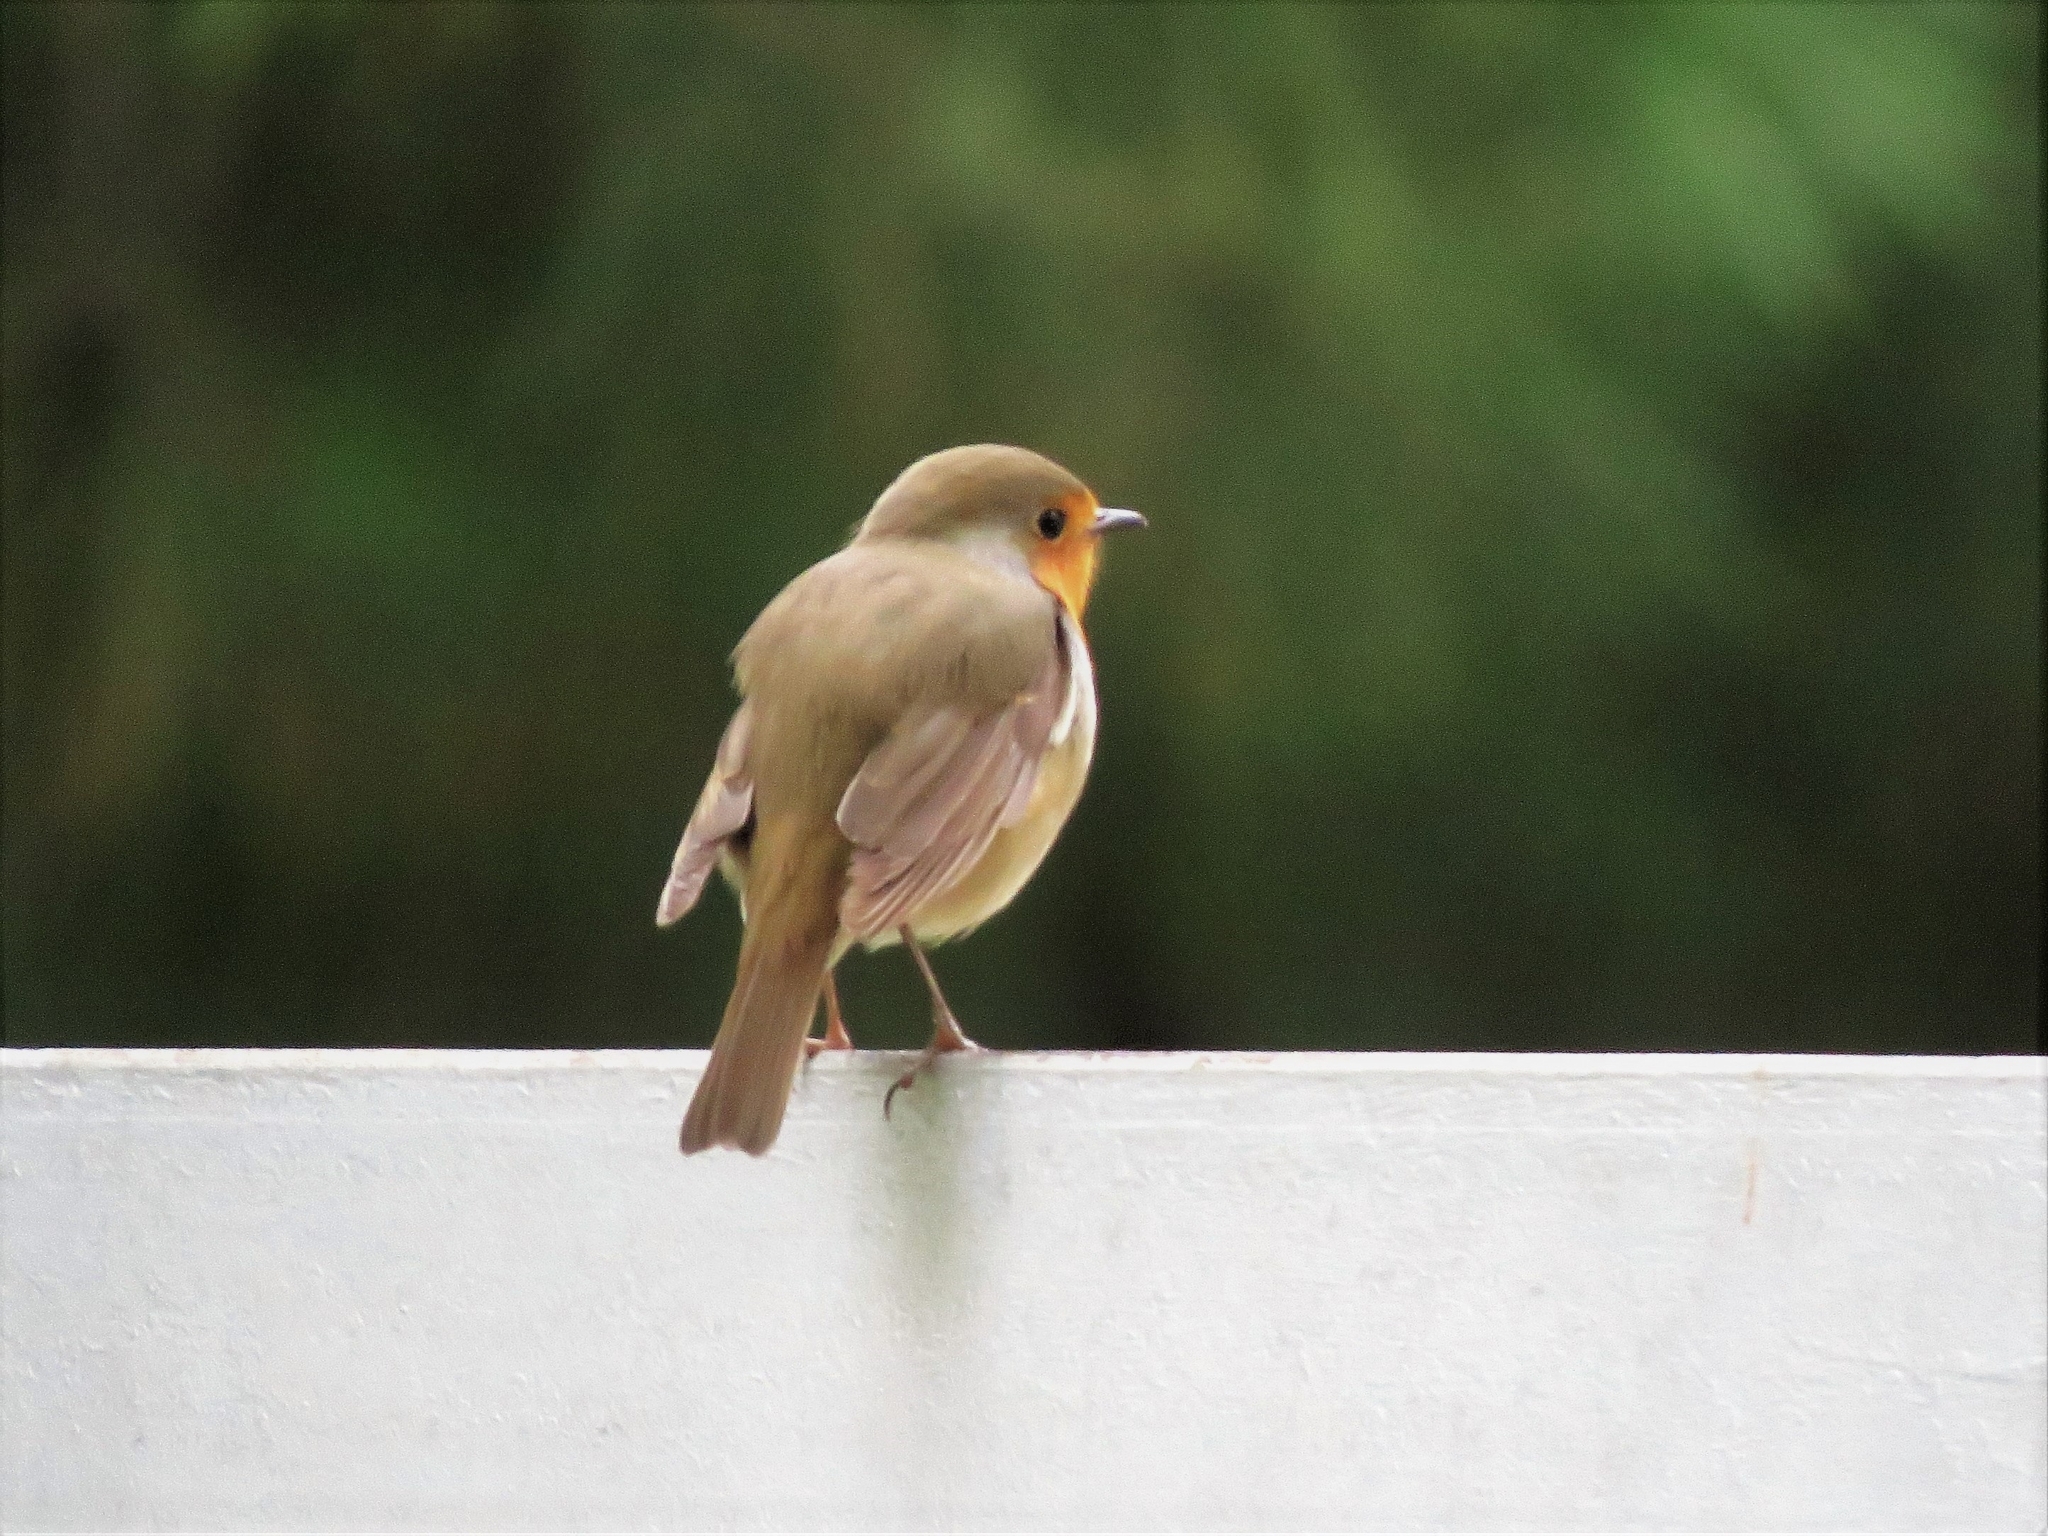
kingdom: Animalia
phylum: Chordata
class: Aves
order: Passeriformes
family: Muscicapidae
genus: Erithacus
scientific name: Erithacus rubecula
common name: European robin
